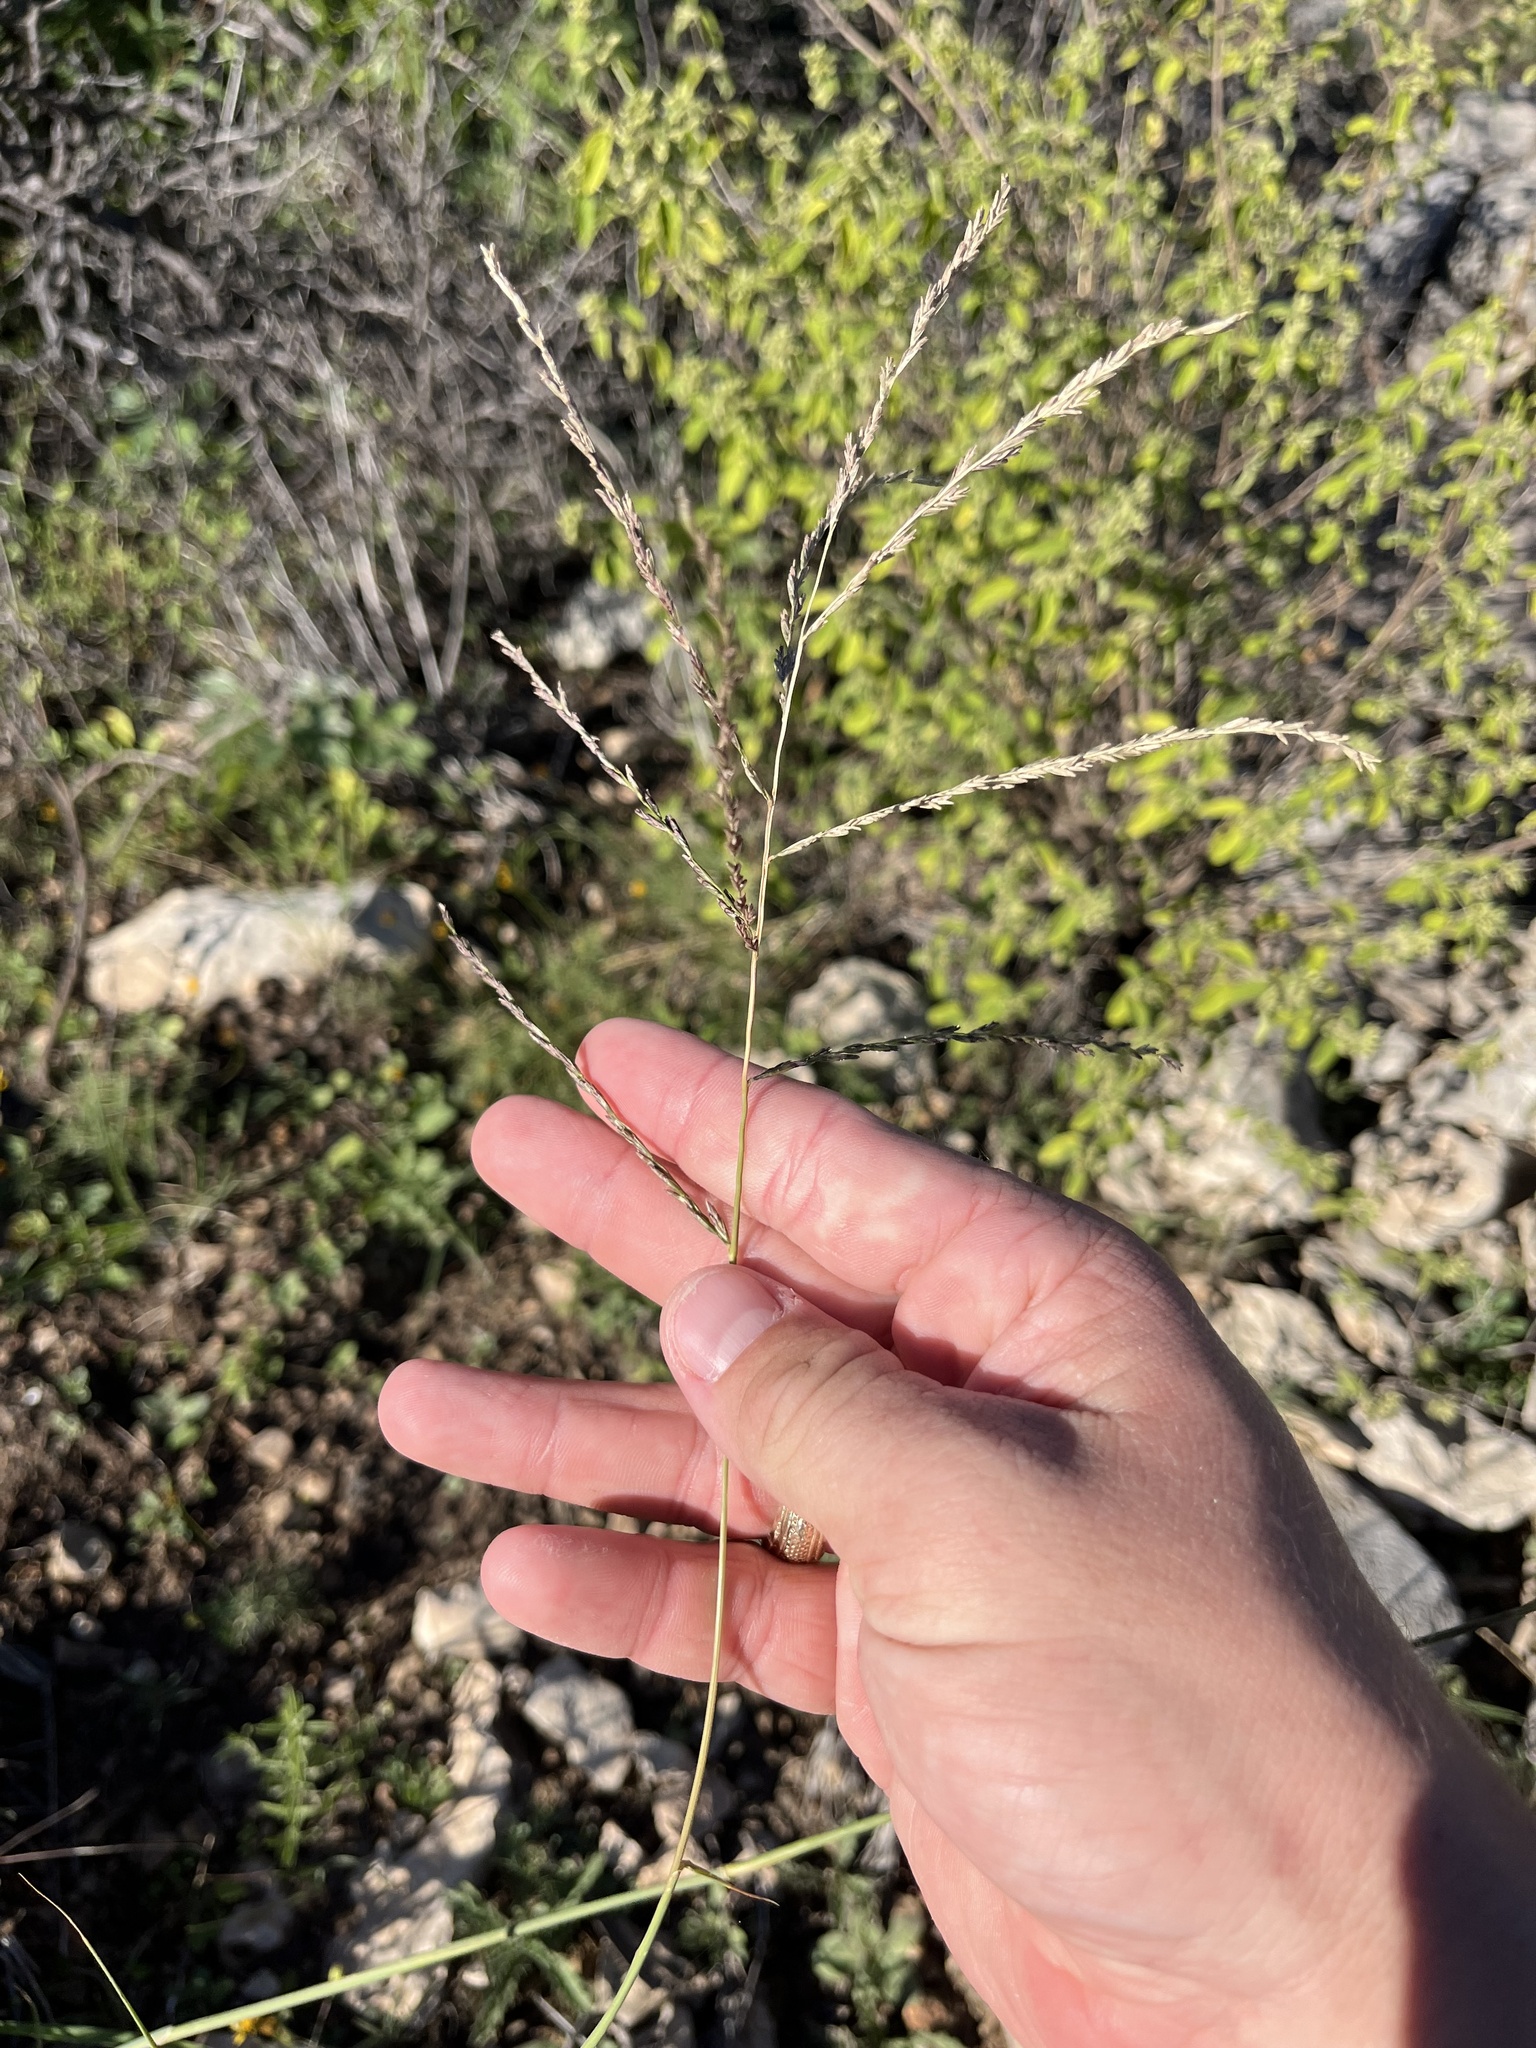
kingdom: Plantae
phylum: Tracheophyta
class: Liliopsida
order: Poales
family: Poaceae
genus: Disakisperma
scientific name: Disakisperma dubium
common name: Green sprangletop
